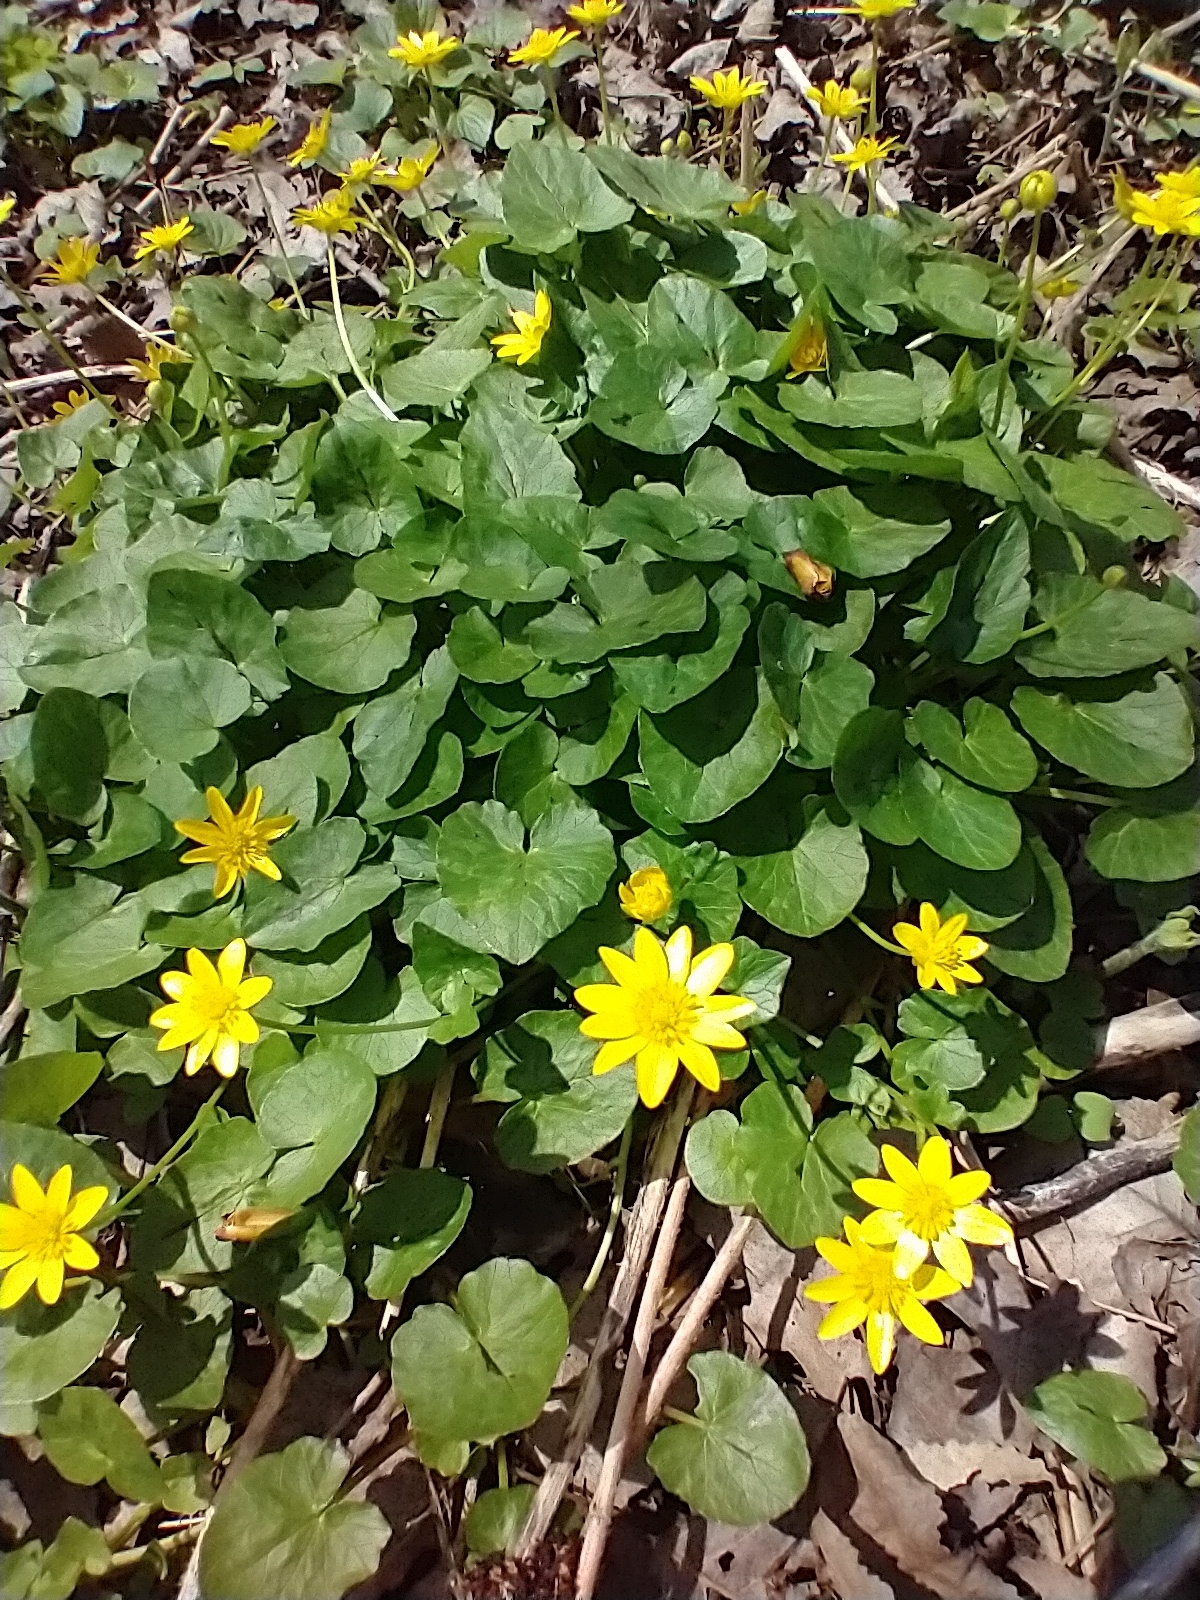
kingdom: Plantae
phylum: Tracheophyta
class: Magnoliopsida
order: Ranunculales
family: Ranunculaceae
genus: Ficaria
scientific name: Ficaria verna
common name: Lesser celandine
